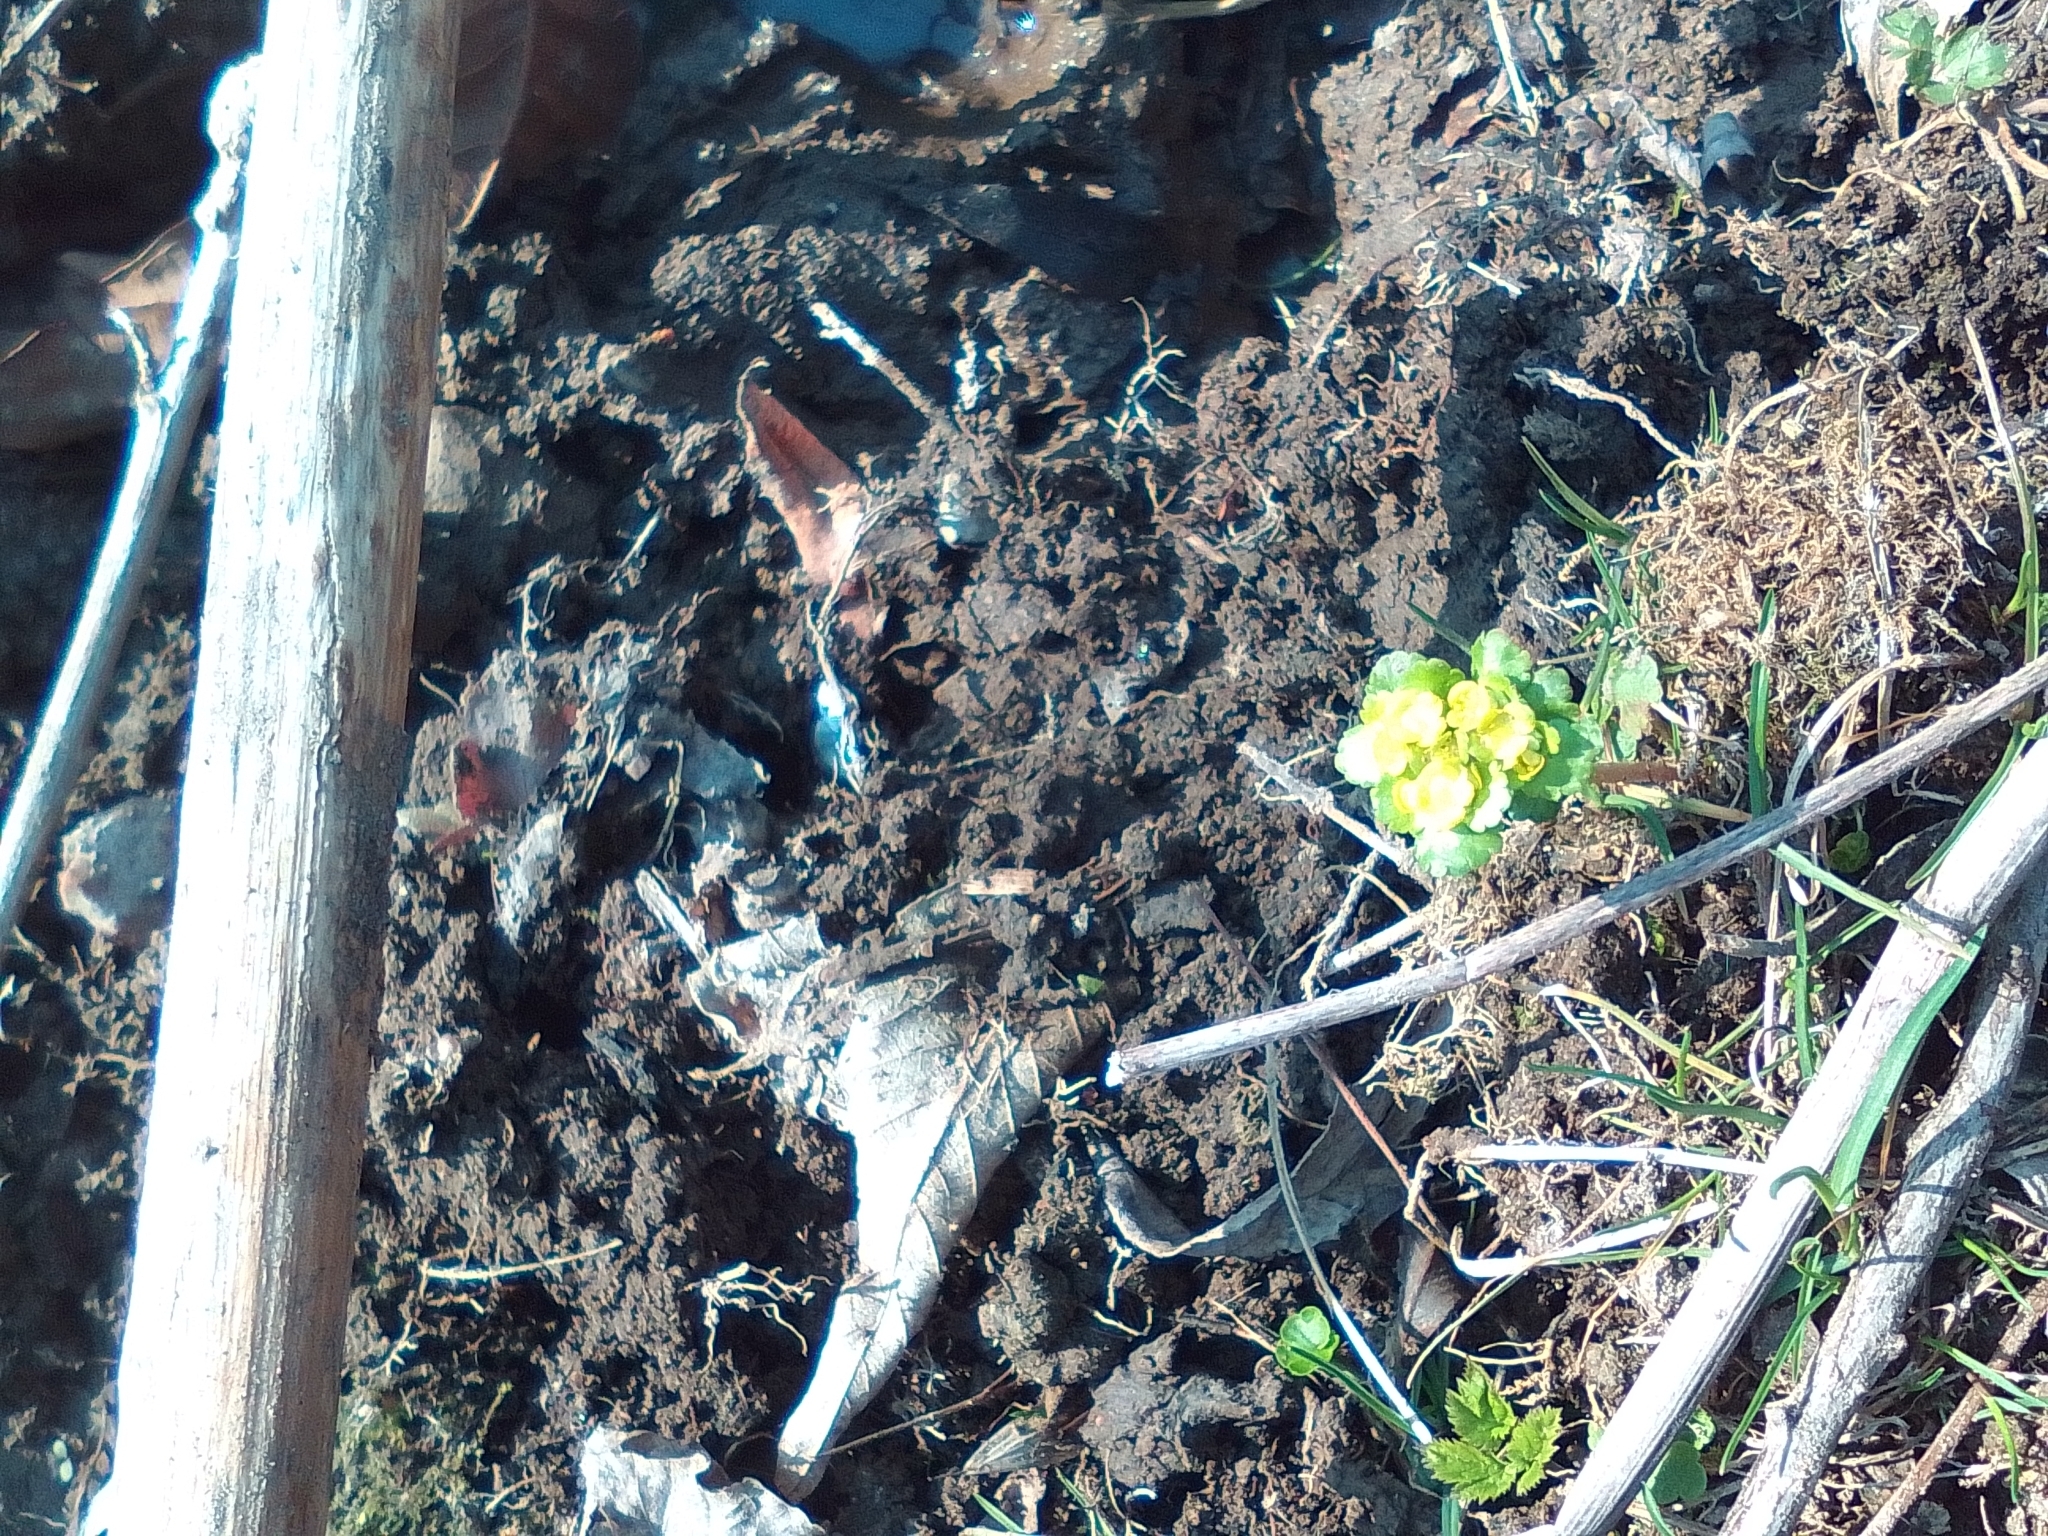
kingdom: Plantae
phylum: Tracheophyta
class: Magnoliopsida
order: Saxifragales
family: Saxifragaceae
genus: Chrysosplenium
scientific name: Chrysosplenium alternifolium
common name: Alternate-leaved golden-saxifrage
